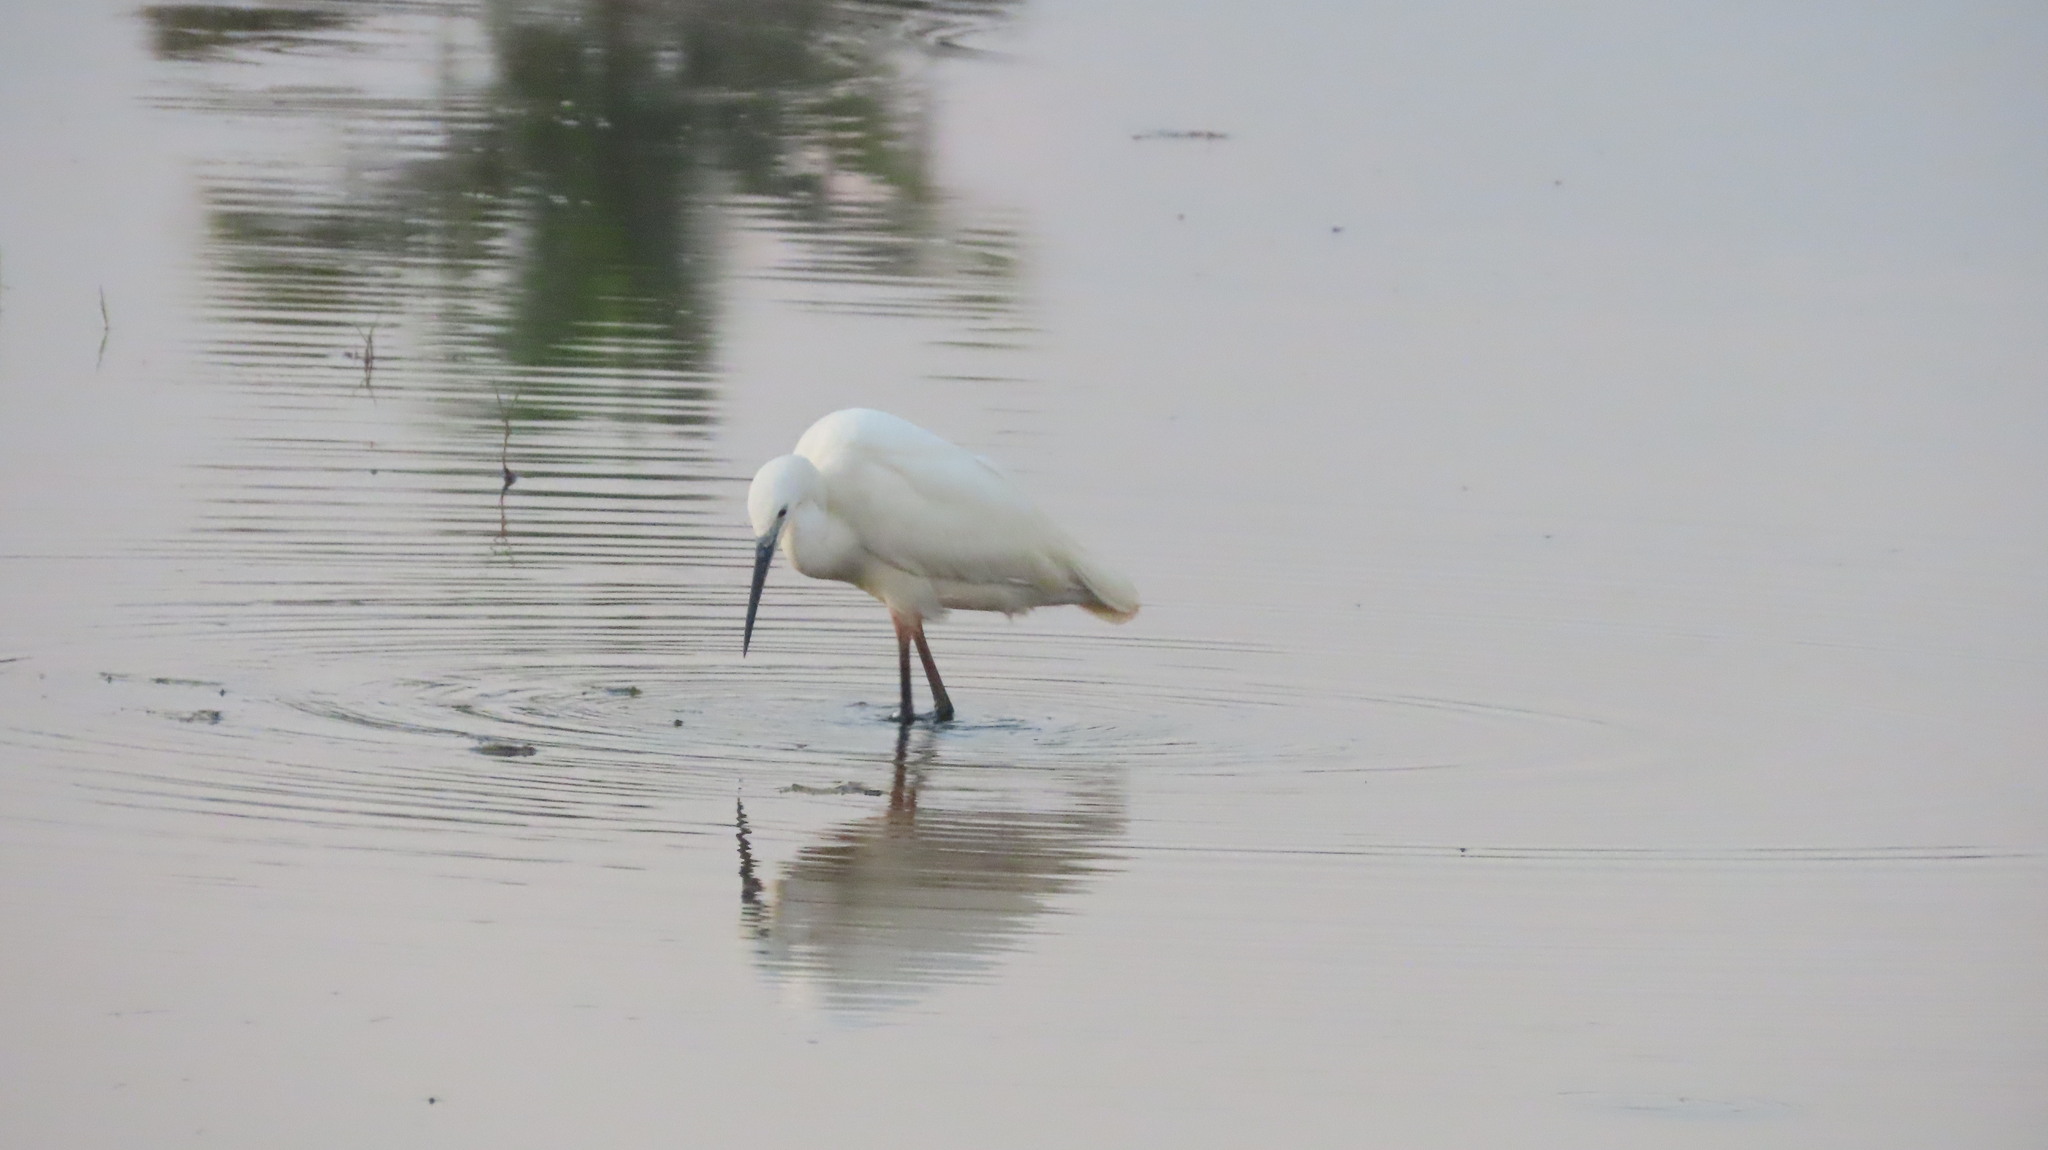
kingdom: Animalia
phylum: Chordata
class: Aves
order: Pelecaniformes
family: Ardeidae
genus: Egretta
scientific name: Egretta garzetta
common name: Little egret
